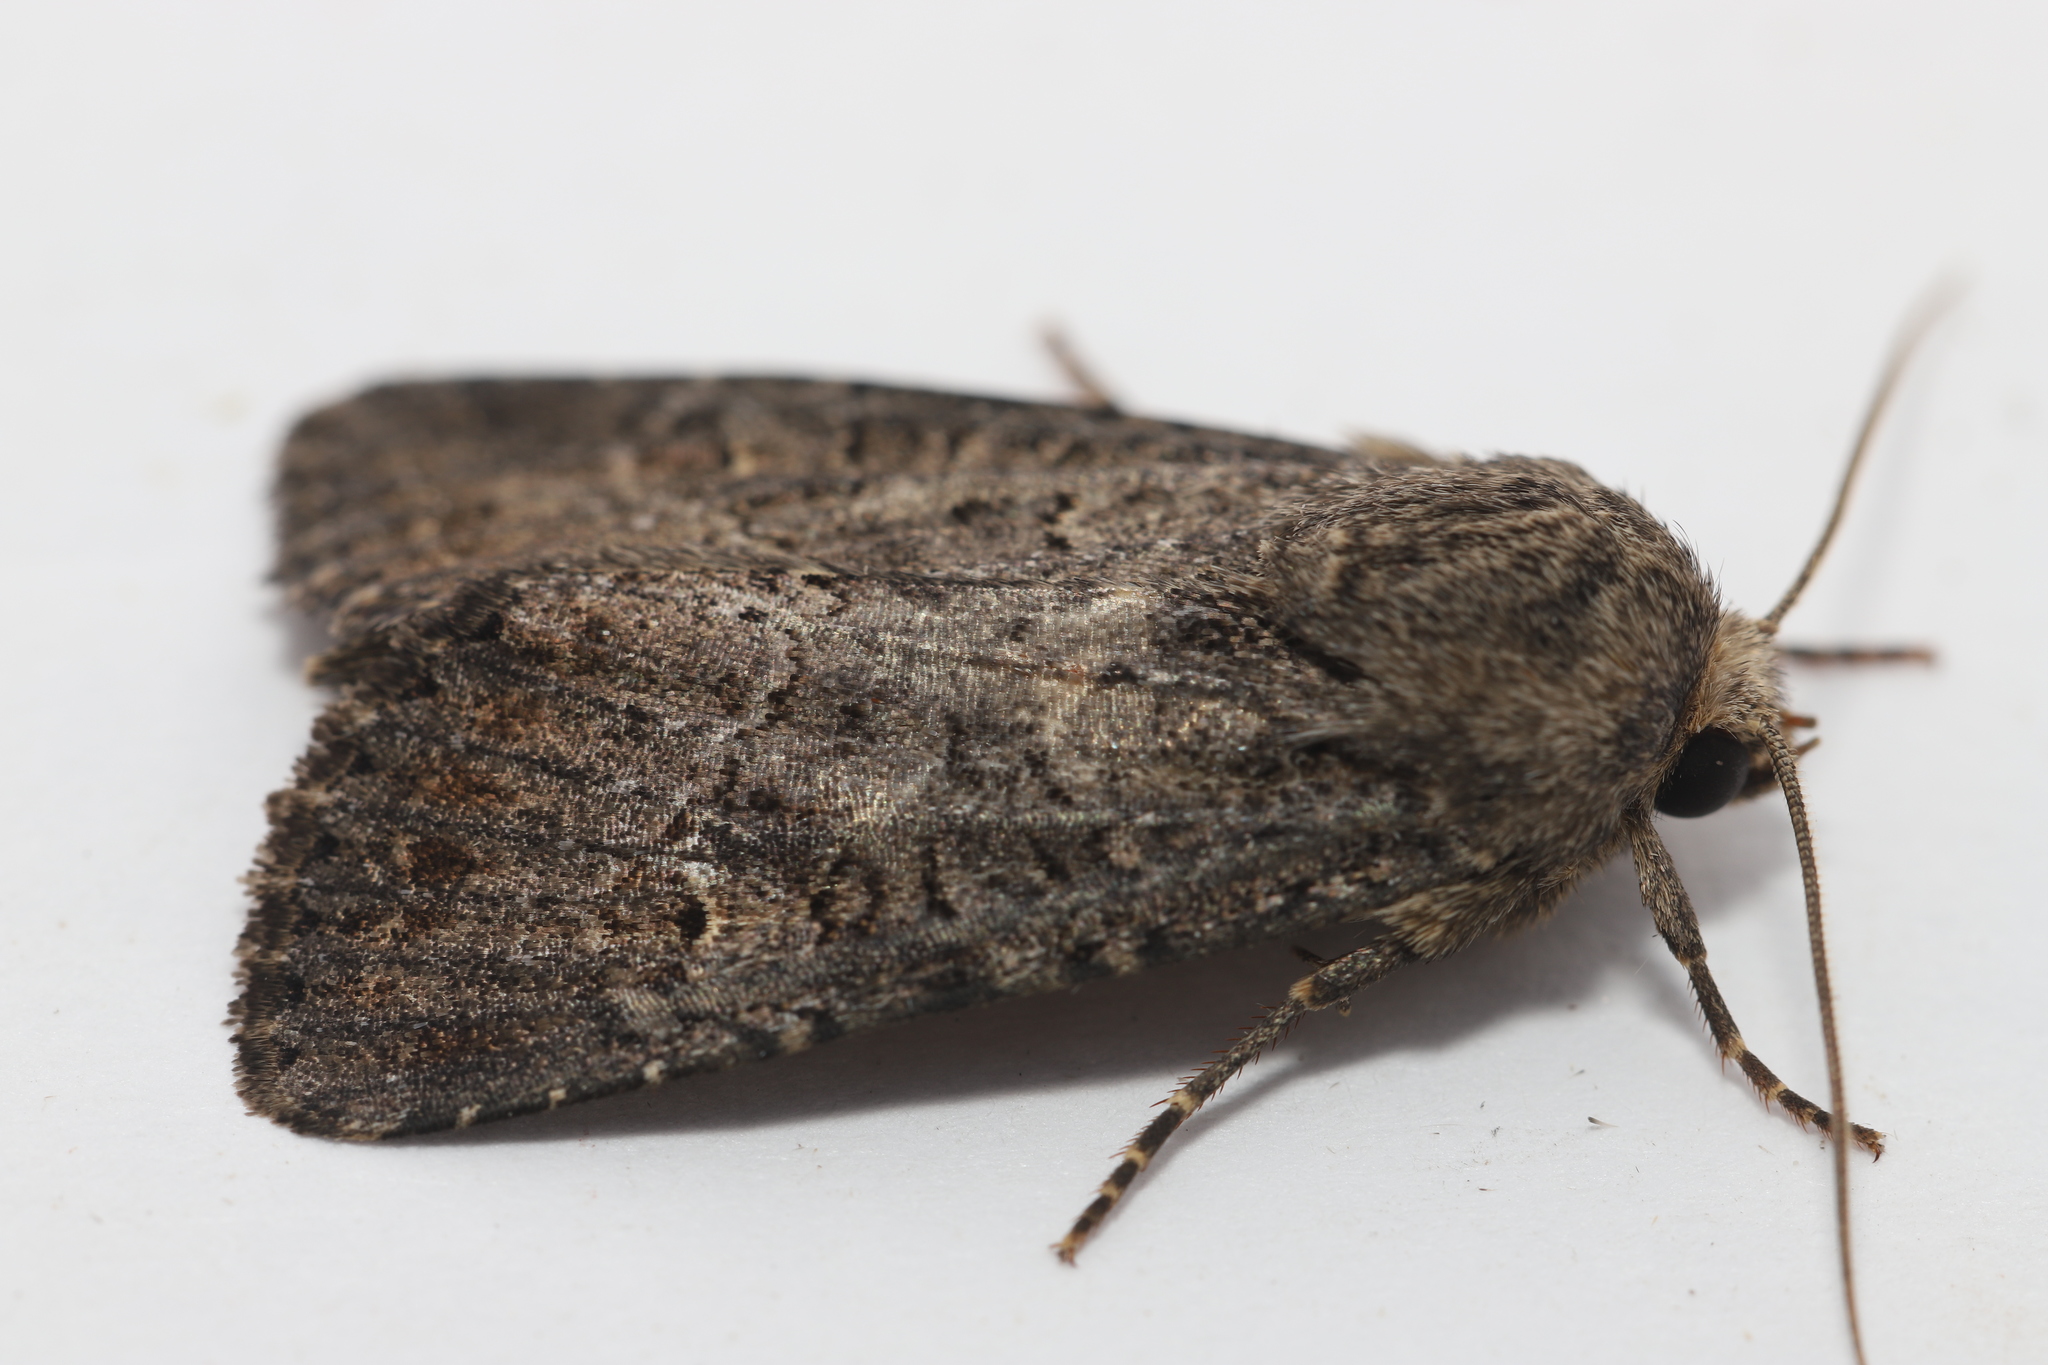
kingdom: Animalia
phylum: Arthropoda
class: Insecta
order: Lepidoptera
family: Noctuidae
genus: Apamea
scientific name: Apamea devastator
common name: Glassy cutworm
